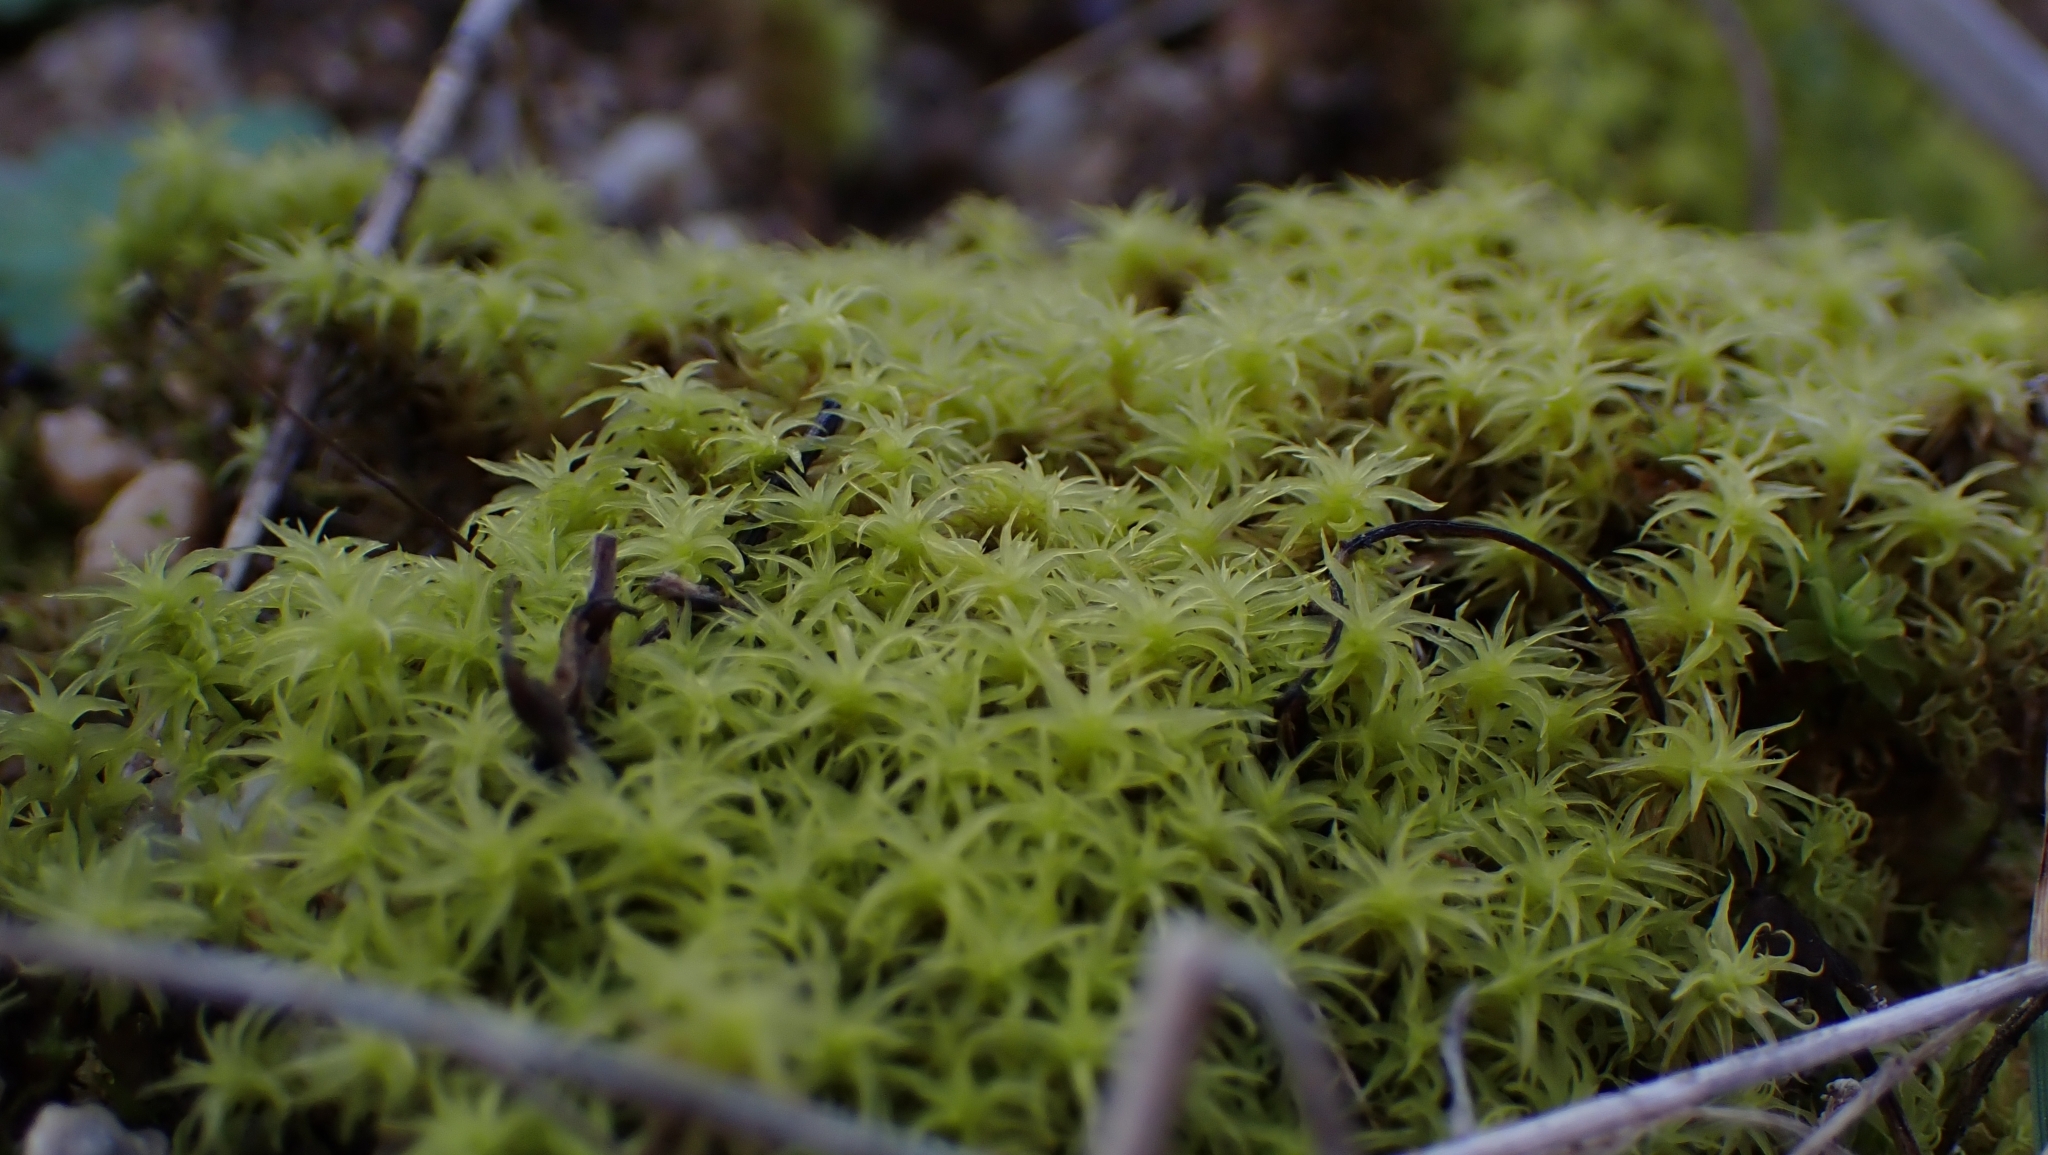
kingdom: Plantae
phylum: Bryophyta
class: Bryopsida
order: Pottiales
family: Pottiaceae
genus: Pleurochaete
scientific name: Pleurochaete squarrosa
